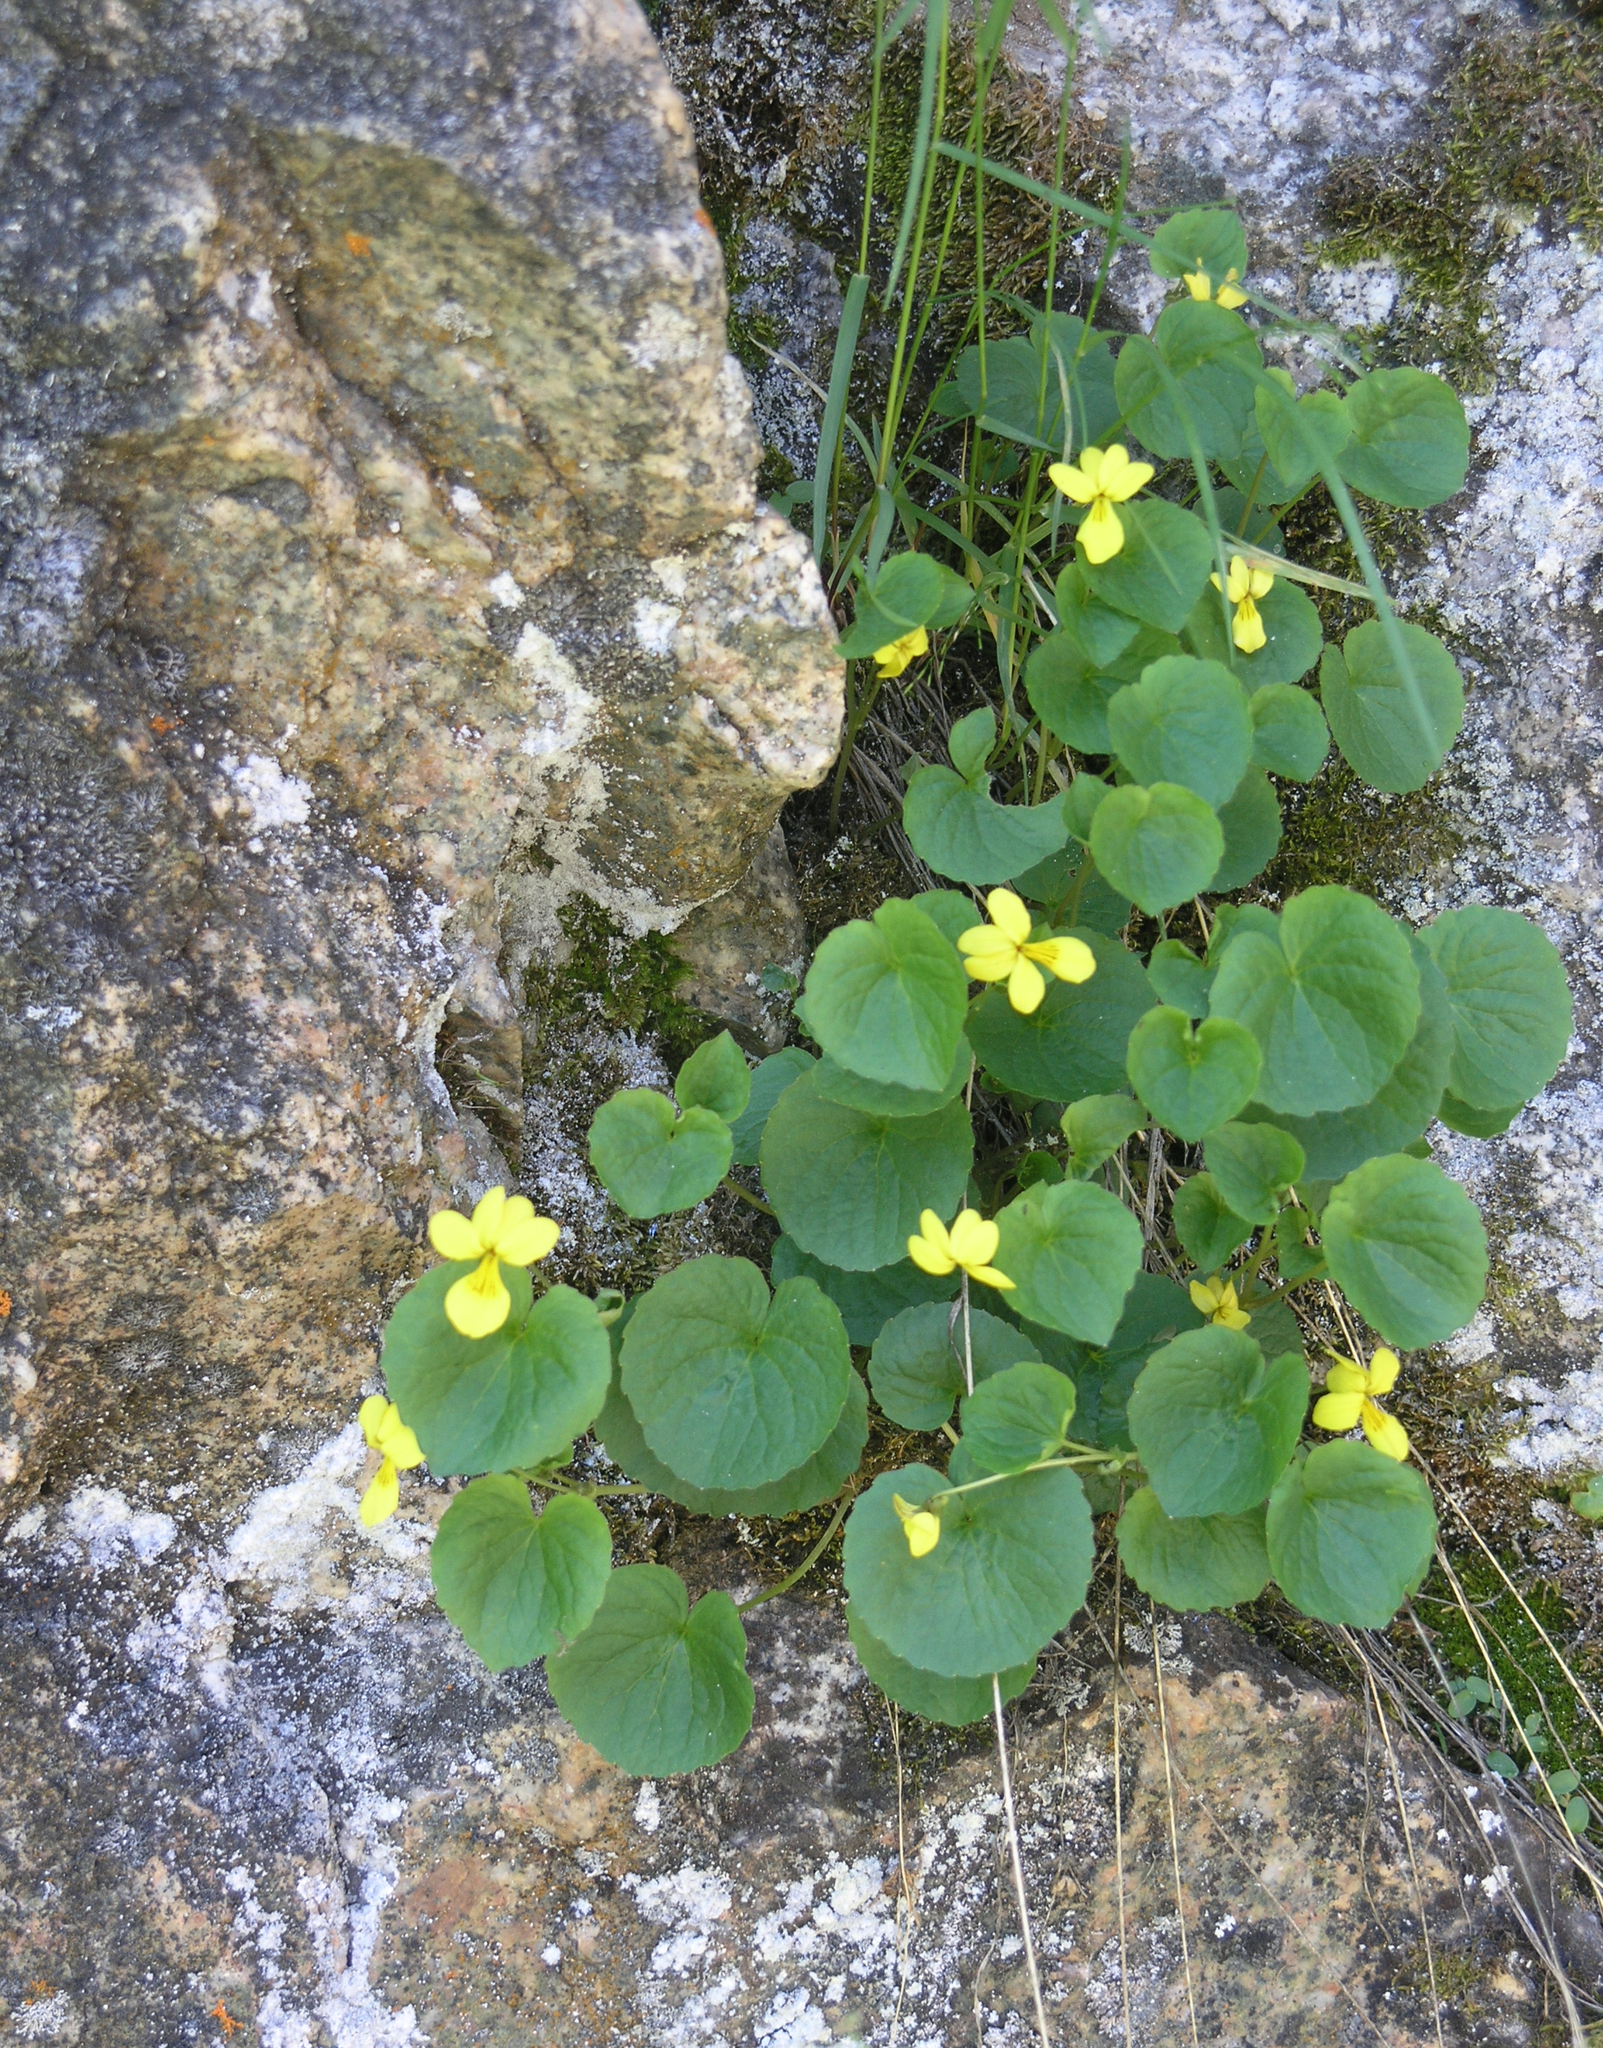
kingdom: Plantae
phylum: Tracheophyta
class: Magnoliopsida
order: Malpighiales
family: Violaceae
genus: Viola
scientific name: Viola biflora
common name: Alpine yellow violet
